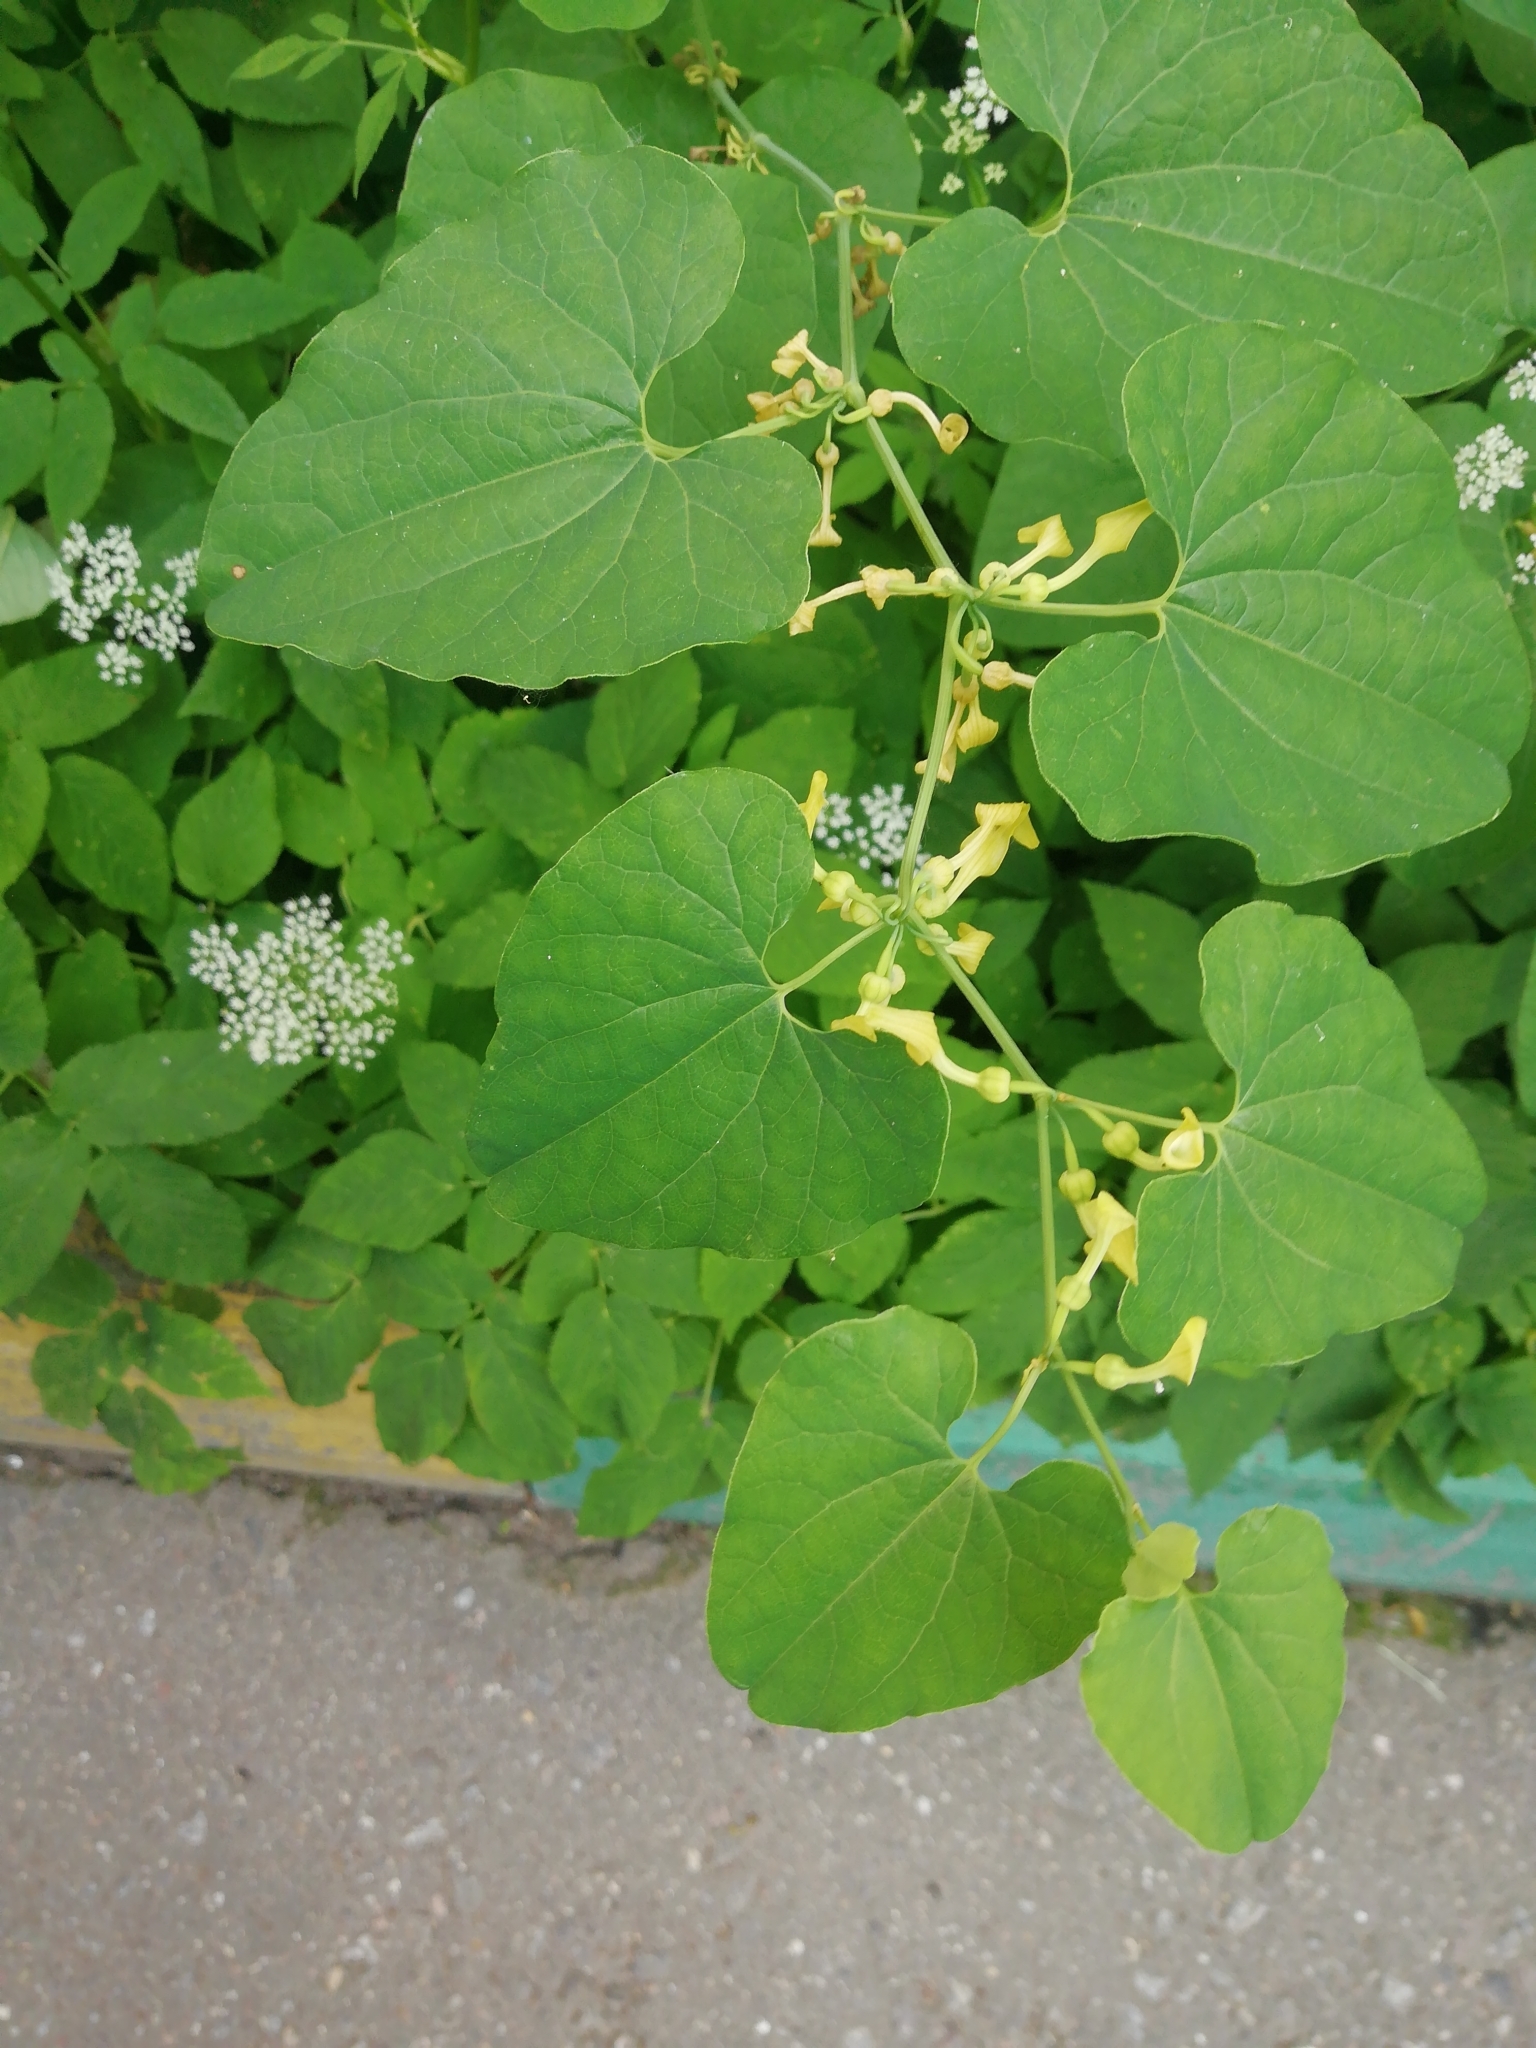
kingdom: Plantae
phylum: Tracheophyta
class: Magnoliopsida
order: Piperales
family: Aristolochiaceae
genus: Aristolochia
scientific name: Aristolochia clematitis
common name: Birthwort
